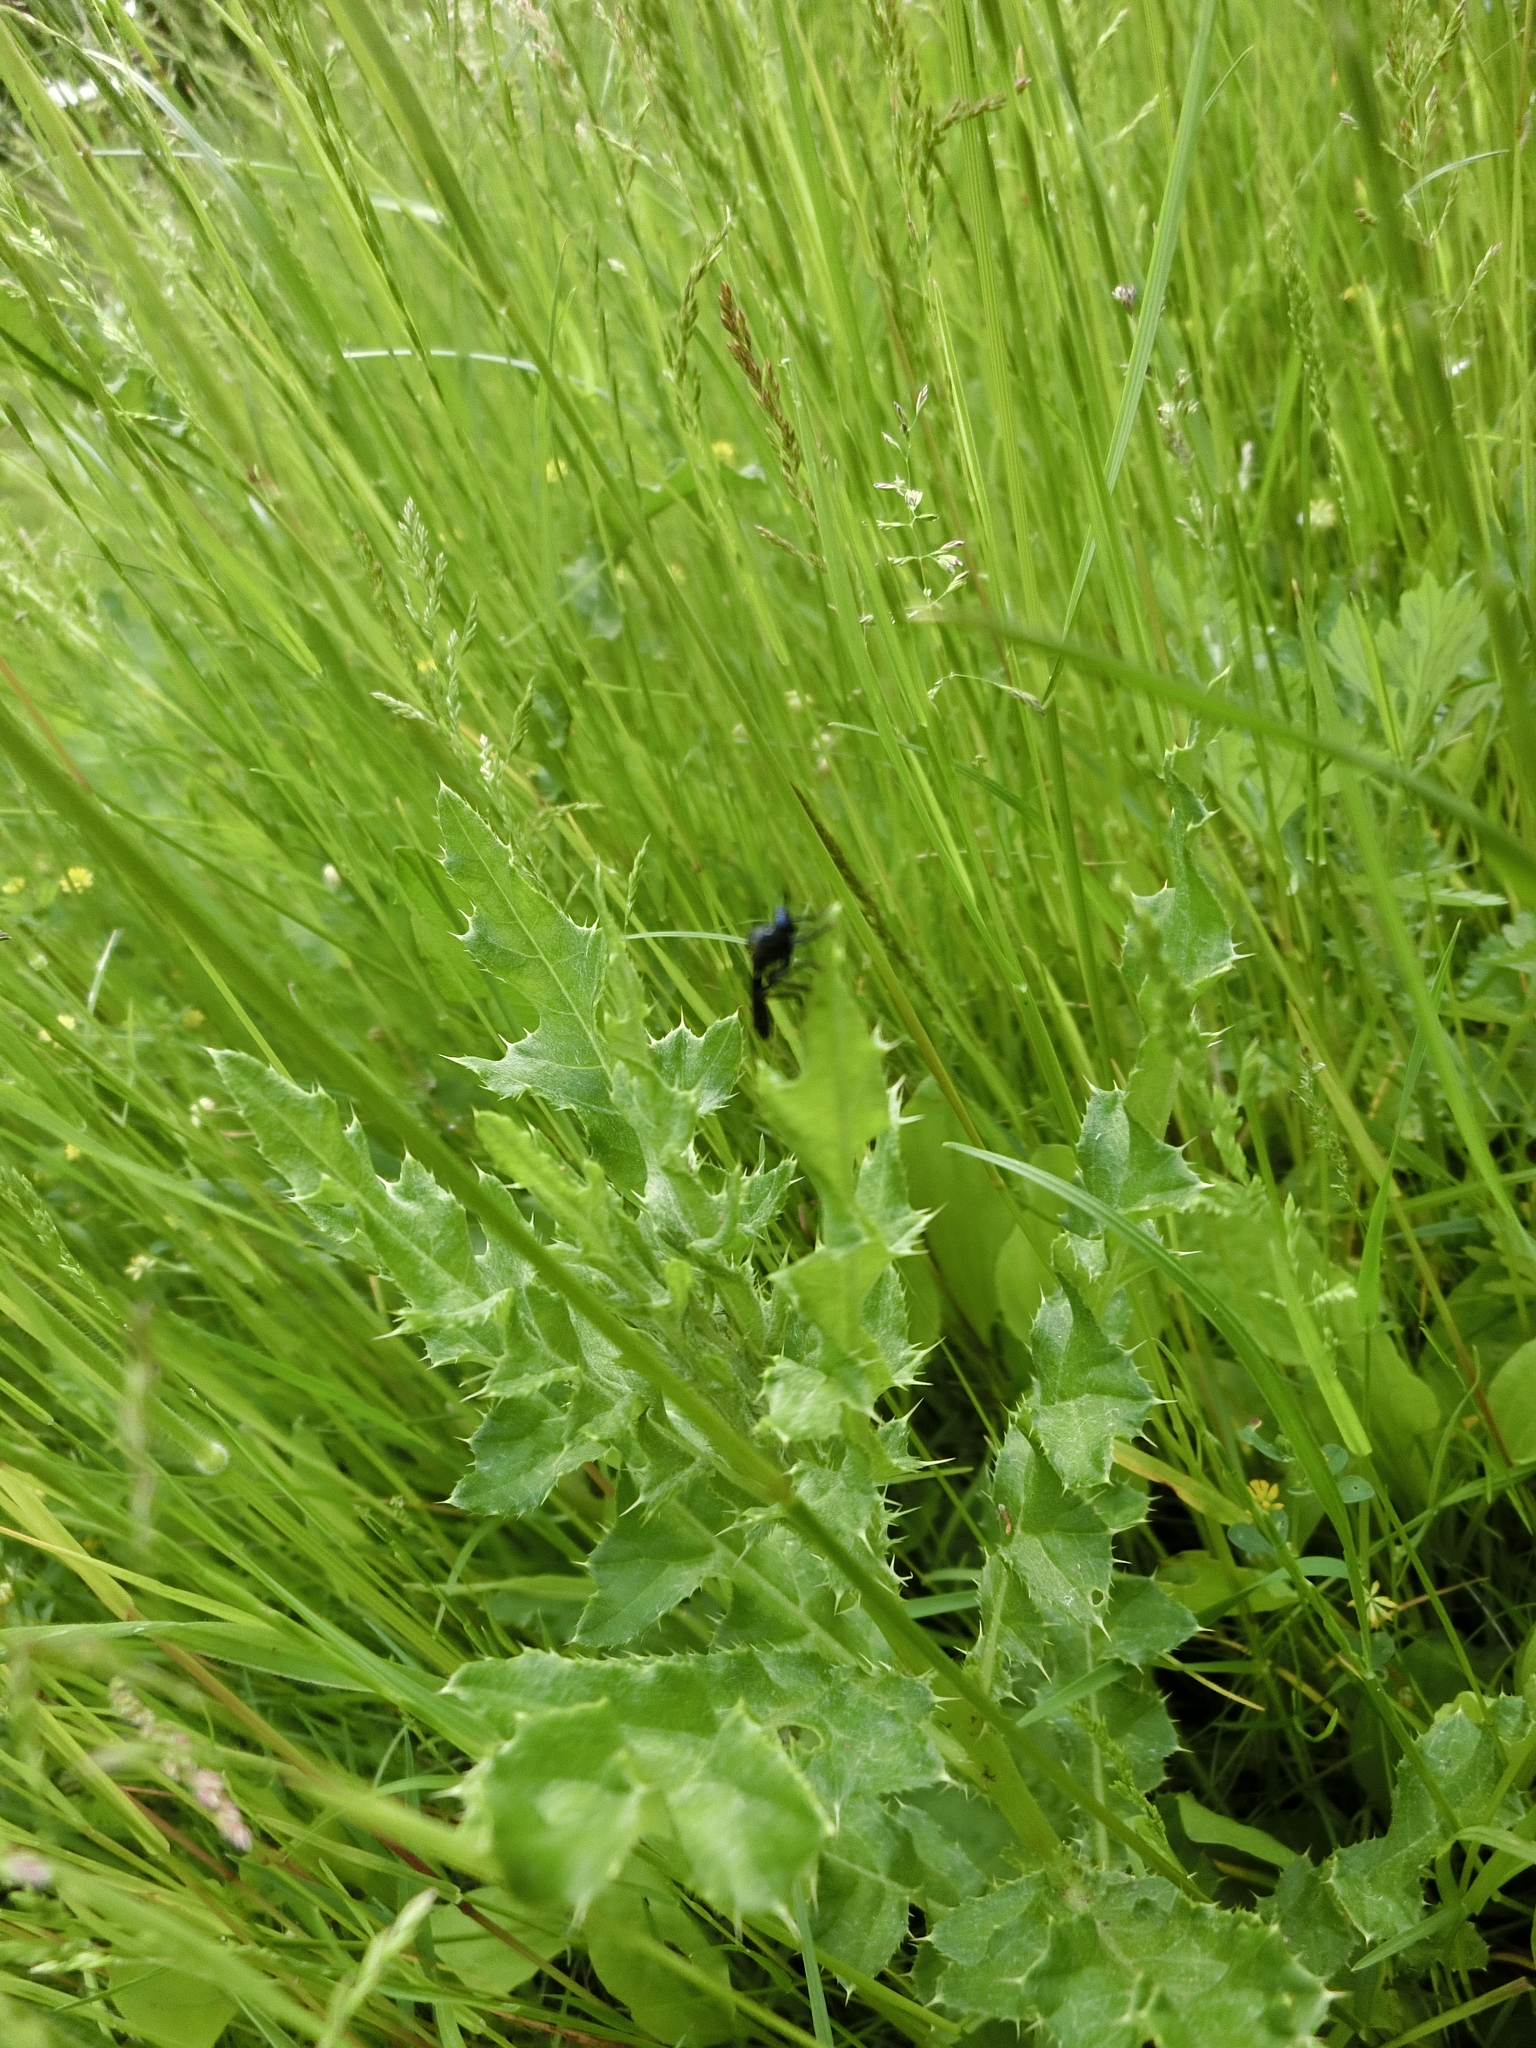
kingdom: Animalia
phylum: Arthropoda
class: Insecta
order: Diptera
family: Asilidae
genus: Dioctria
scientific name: Dioctria atricapilla
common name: Violet black-legged
